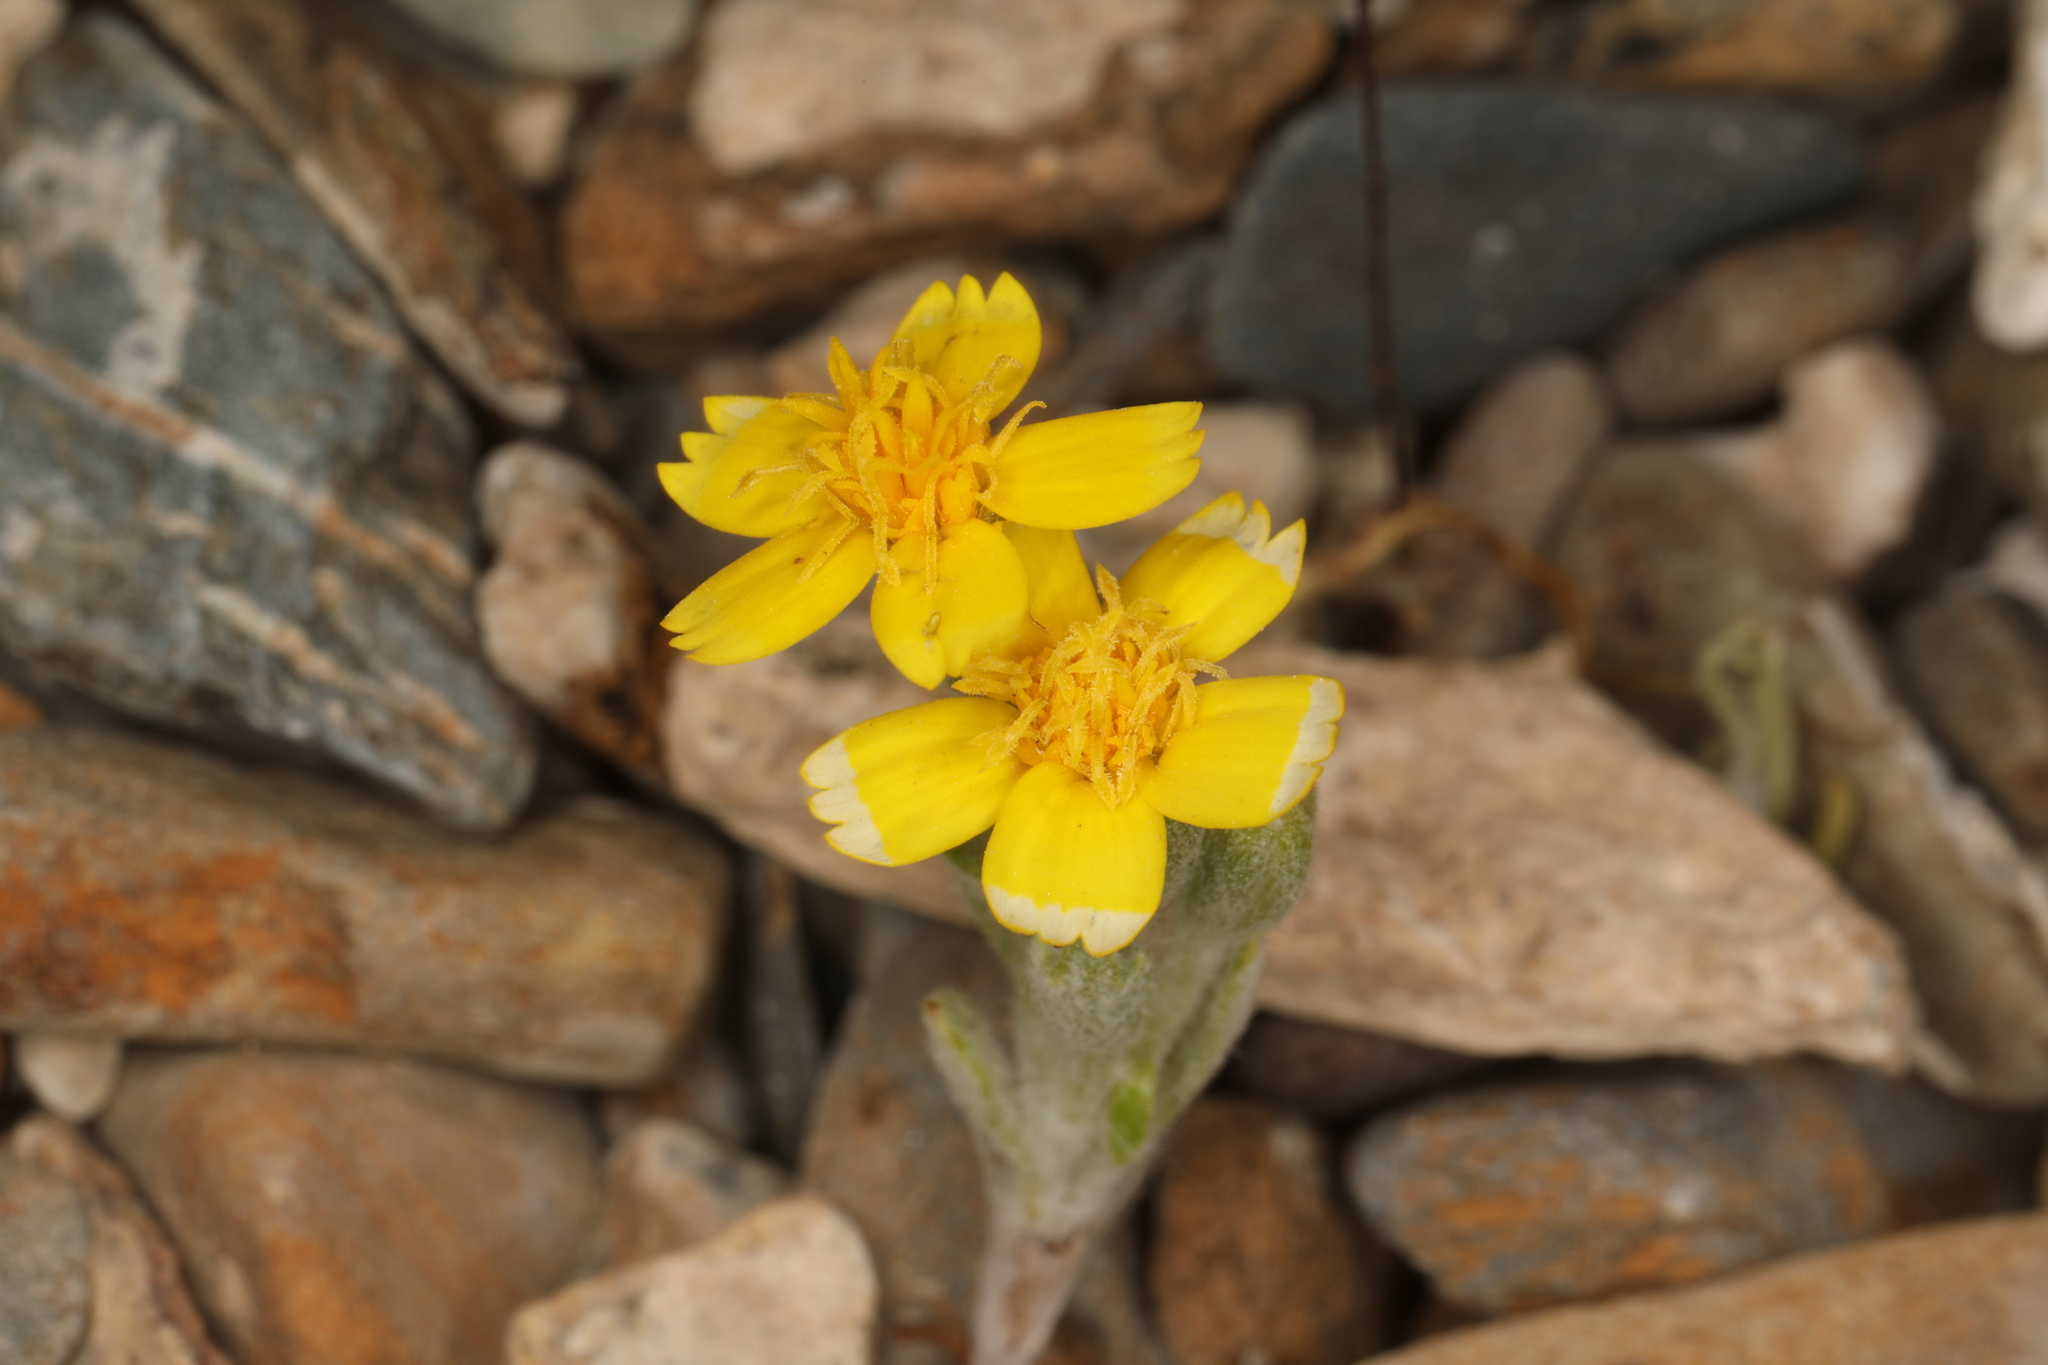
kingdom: Plantae
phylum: Tracheophyta
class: Magnoliopsida
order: Asterales
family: Asteraceae
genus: Syntrichopappus
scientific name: Syntrichopappus fremontii
